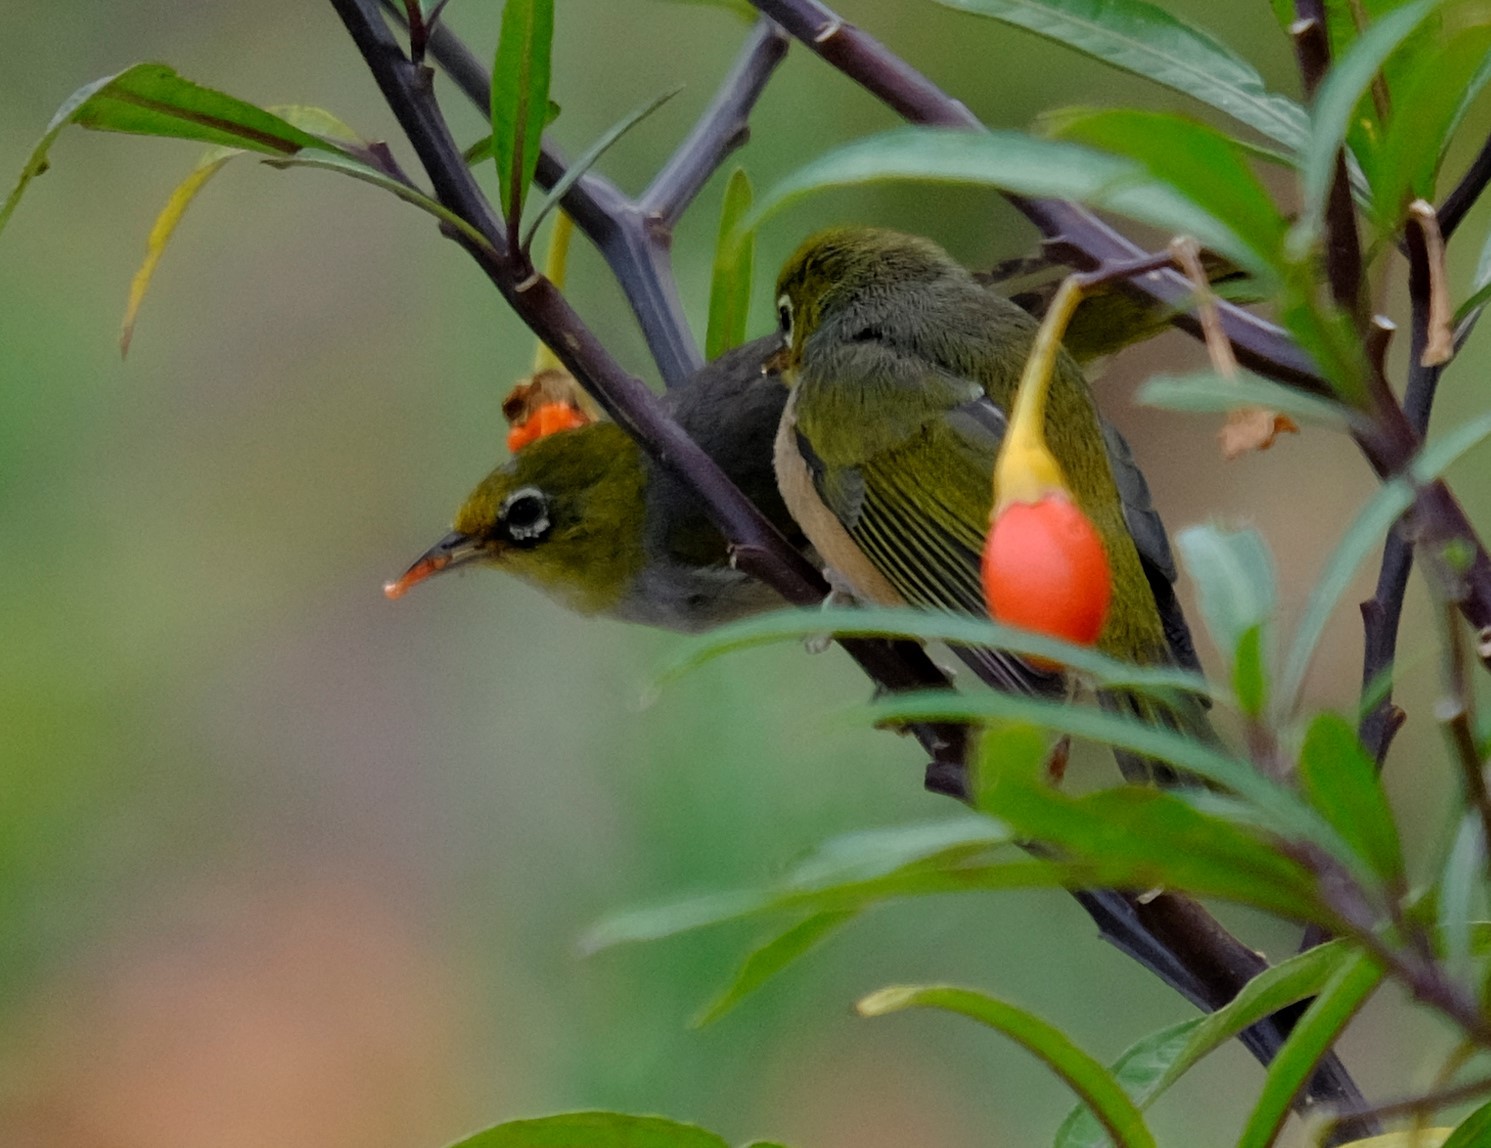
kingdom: Animalia
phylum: Chordata
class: Aves
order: Passeriformes
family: Zosteropidae
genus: Zosterops
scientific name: Zosterops lateralis
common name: Silvereye
